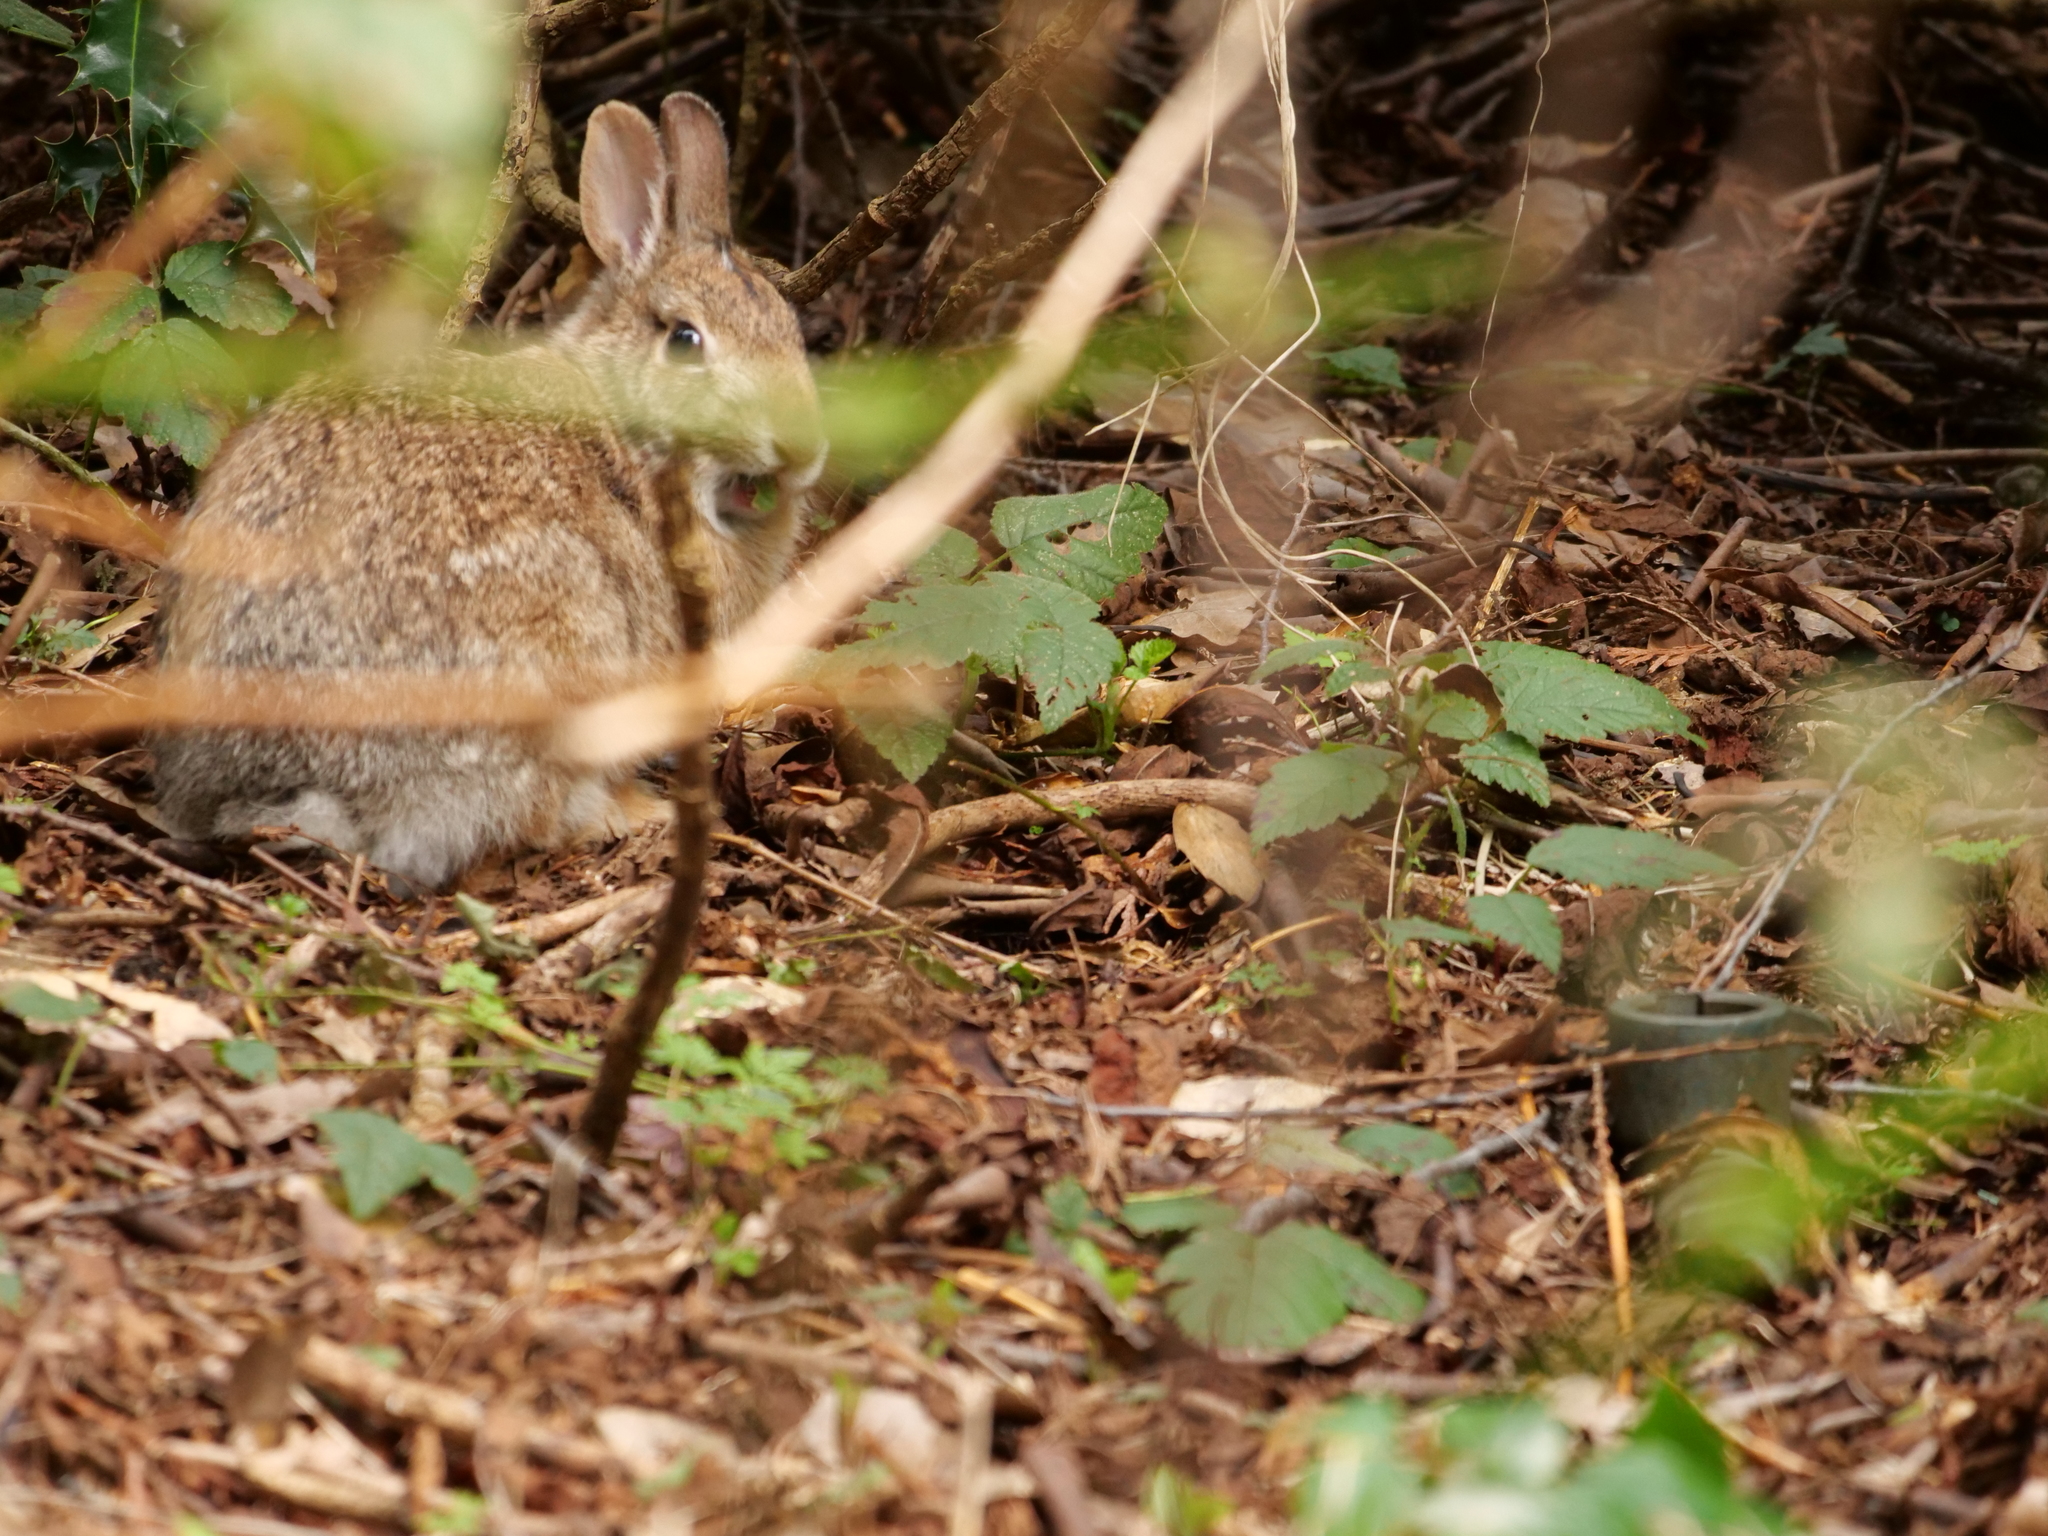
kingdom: Animalia
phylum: Chordata
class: Mammalia
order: Lagomorpha
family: Leporidae
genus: Sylvilagus
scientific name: Sylvilagus floridanus
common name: Eastern cottontail
